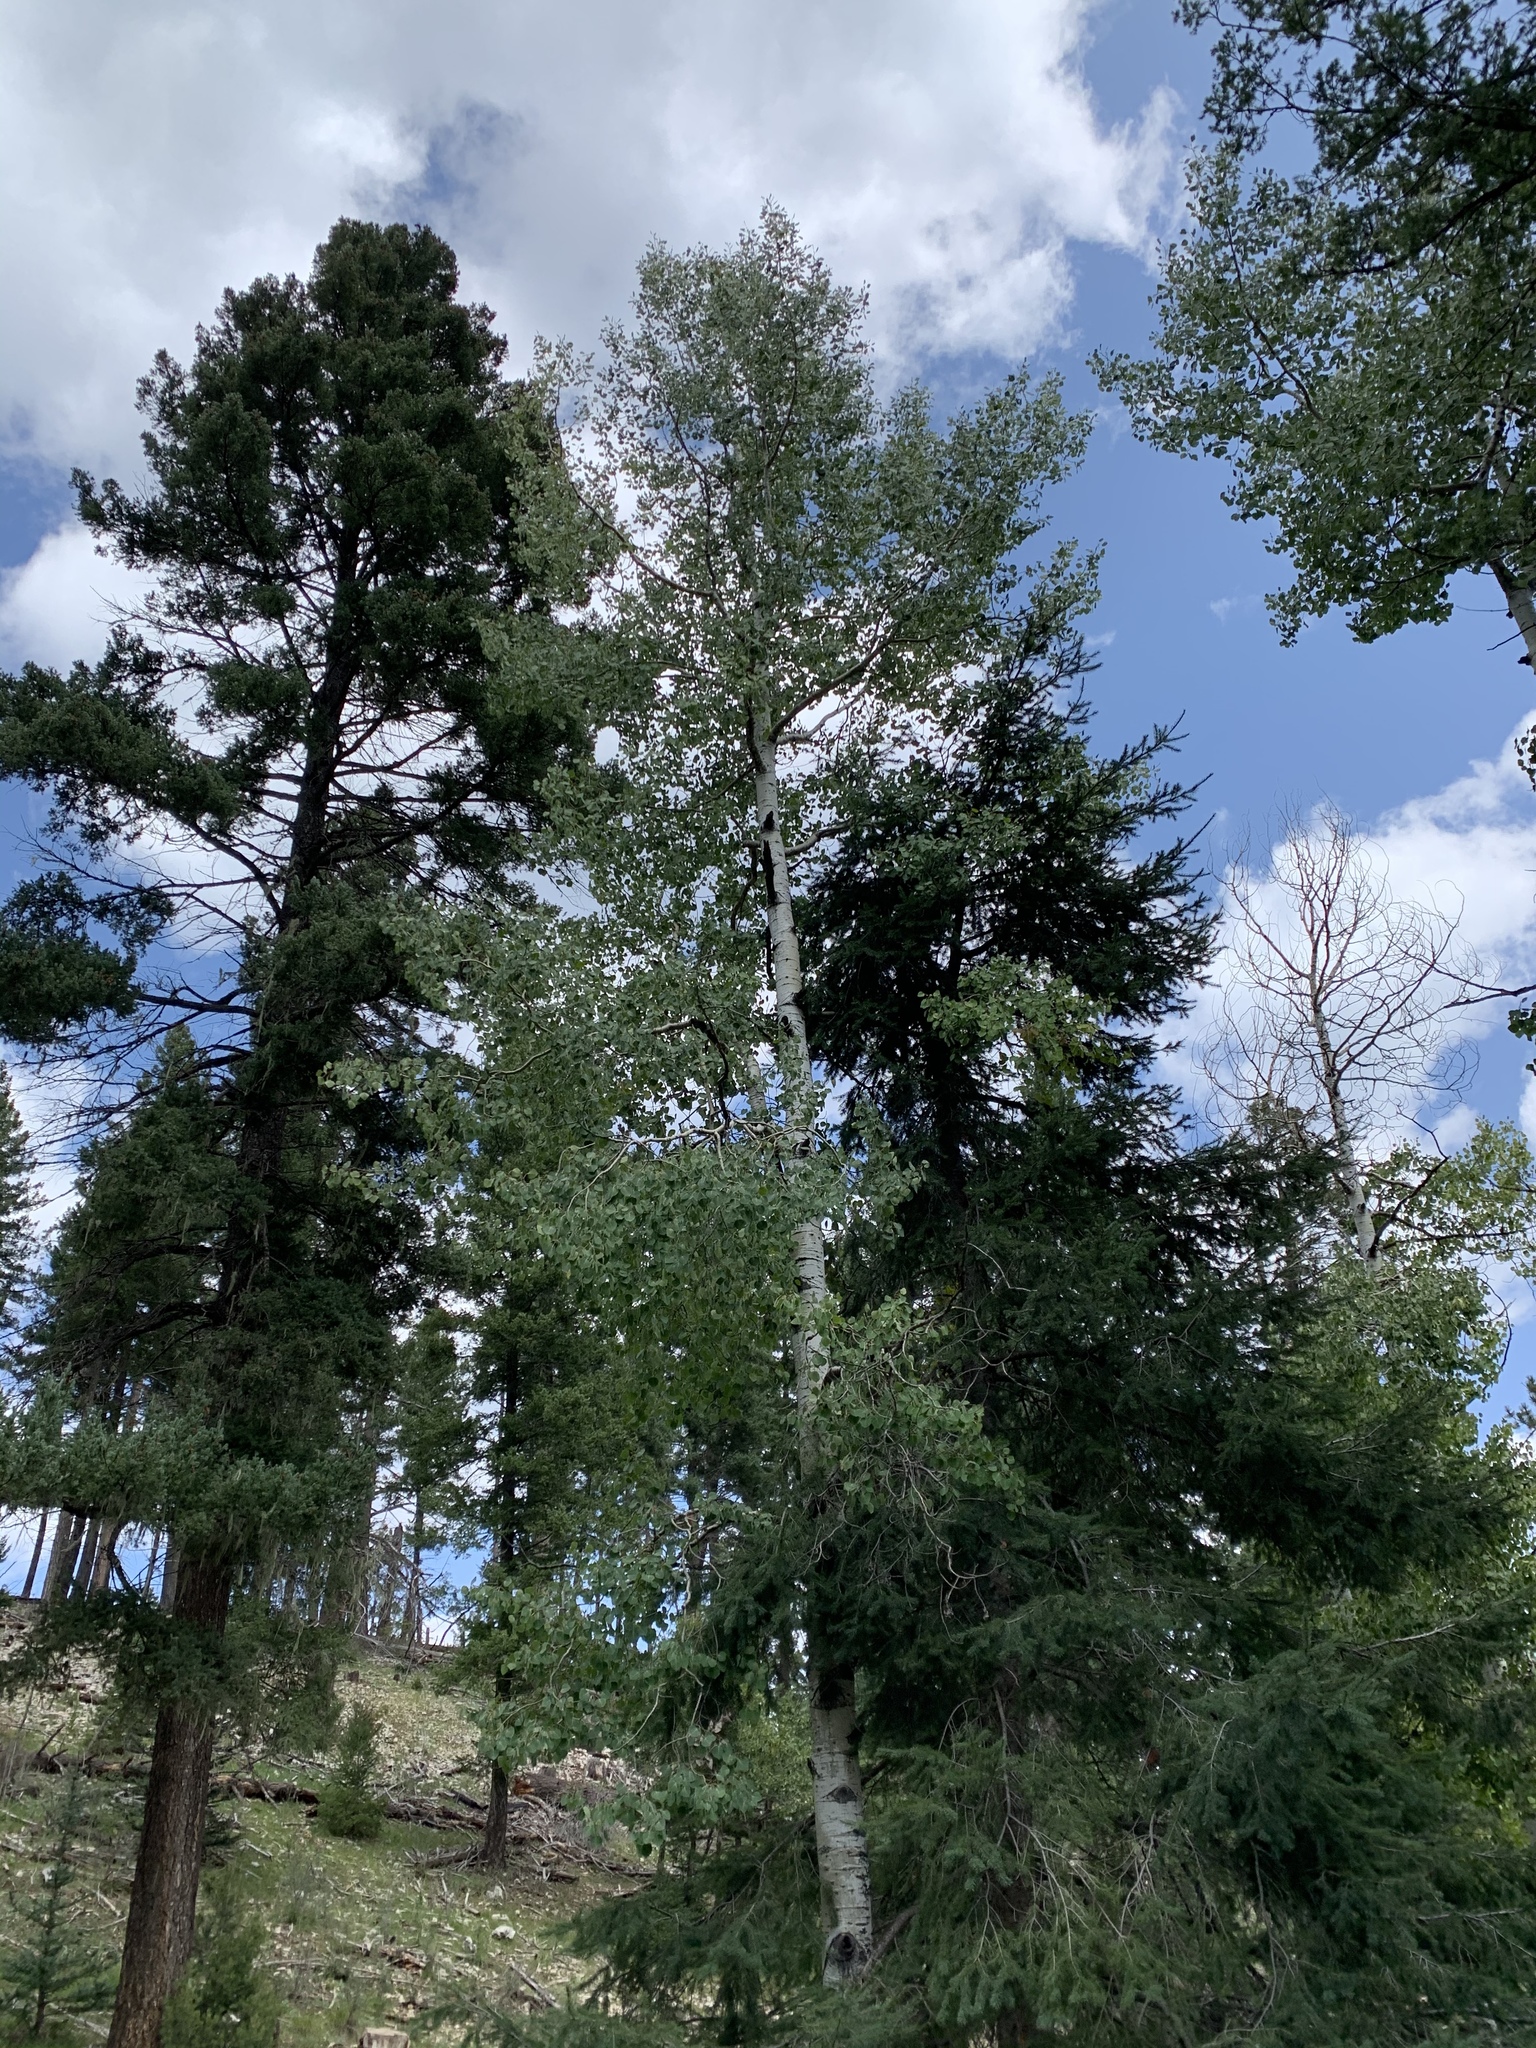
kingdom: Plantae
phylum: Tracheophyta
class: Magnoliopsida
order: Malpighiales
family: Salicaceae
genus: Populus
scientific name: Populus tremuloides
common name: Quaking aspen
